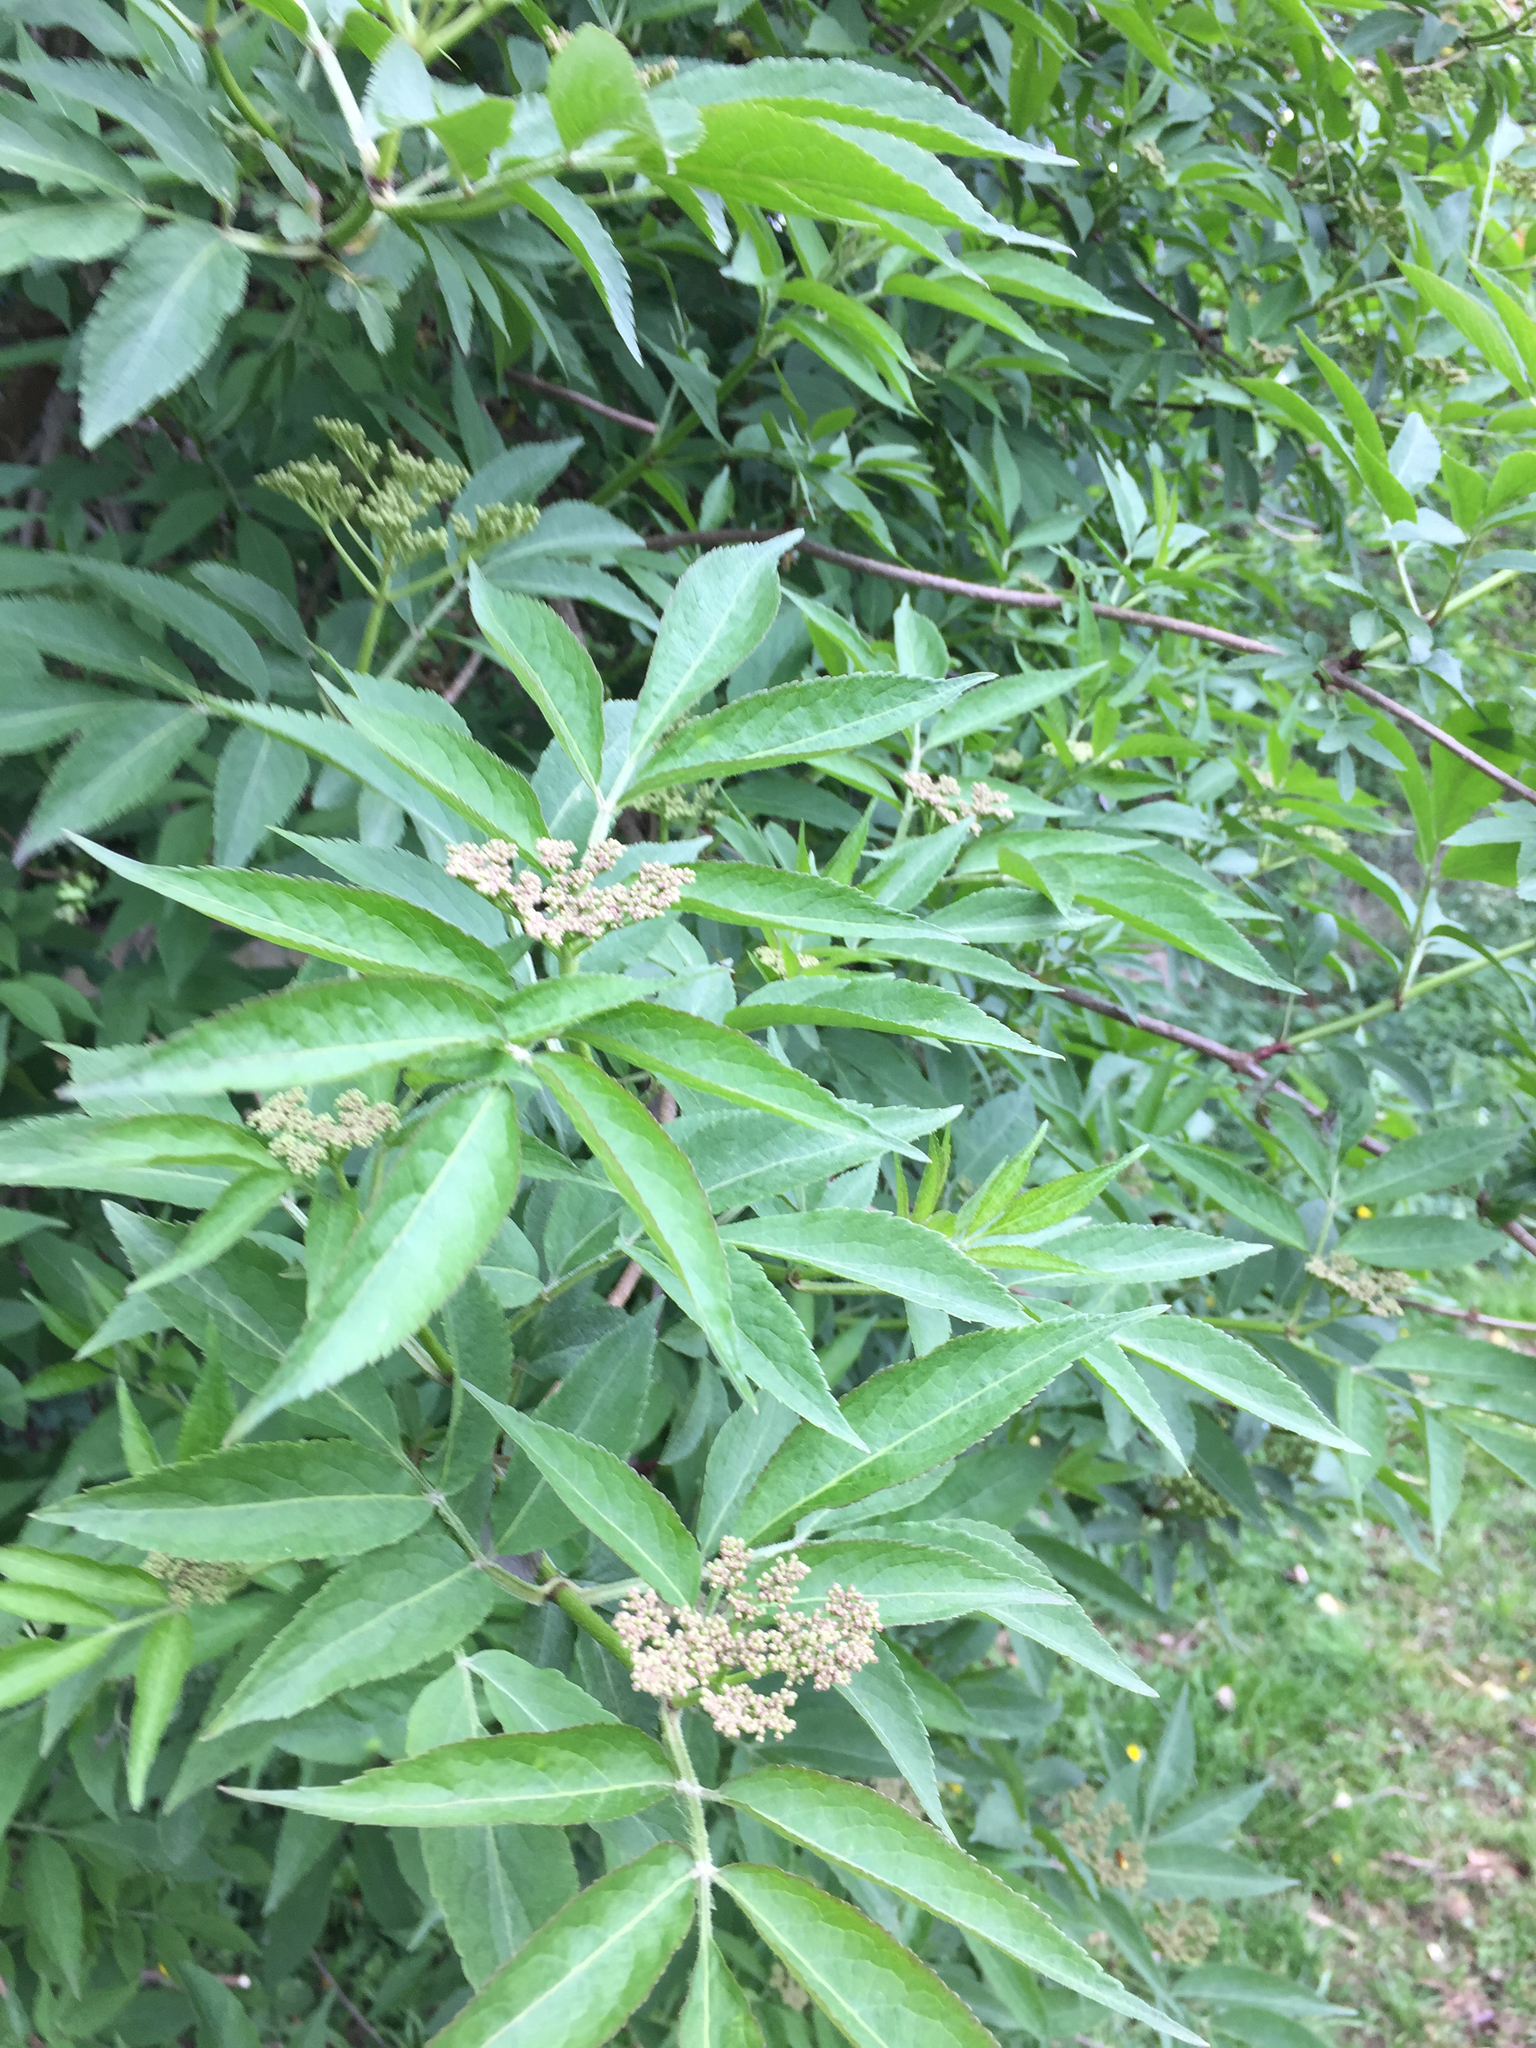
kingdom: Plantae
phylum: Tracheophyta
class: Magnoliopsida
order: Dipsacales
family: Viburnaceae
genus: Sambucus
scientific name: Sambucus nigra
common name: Elder
